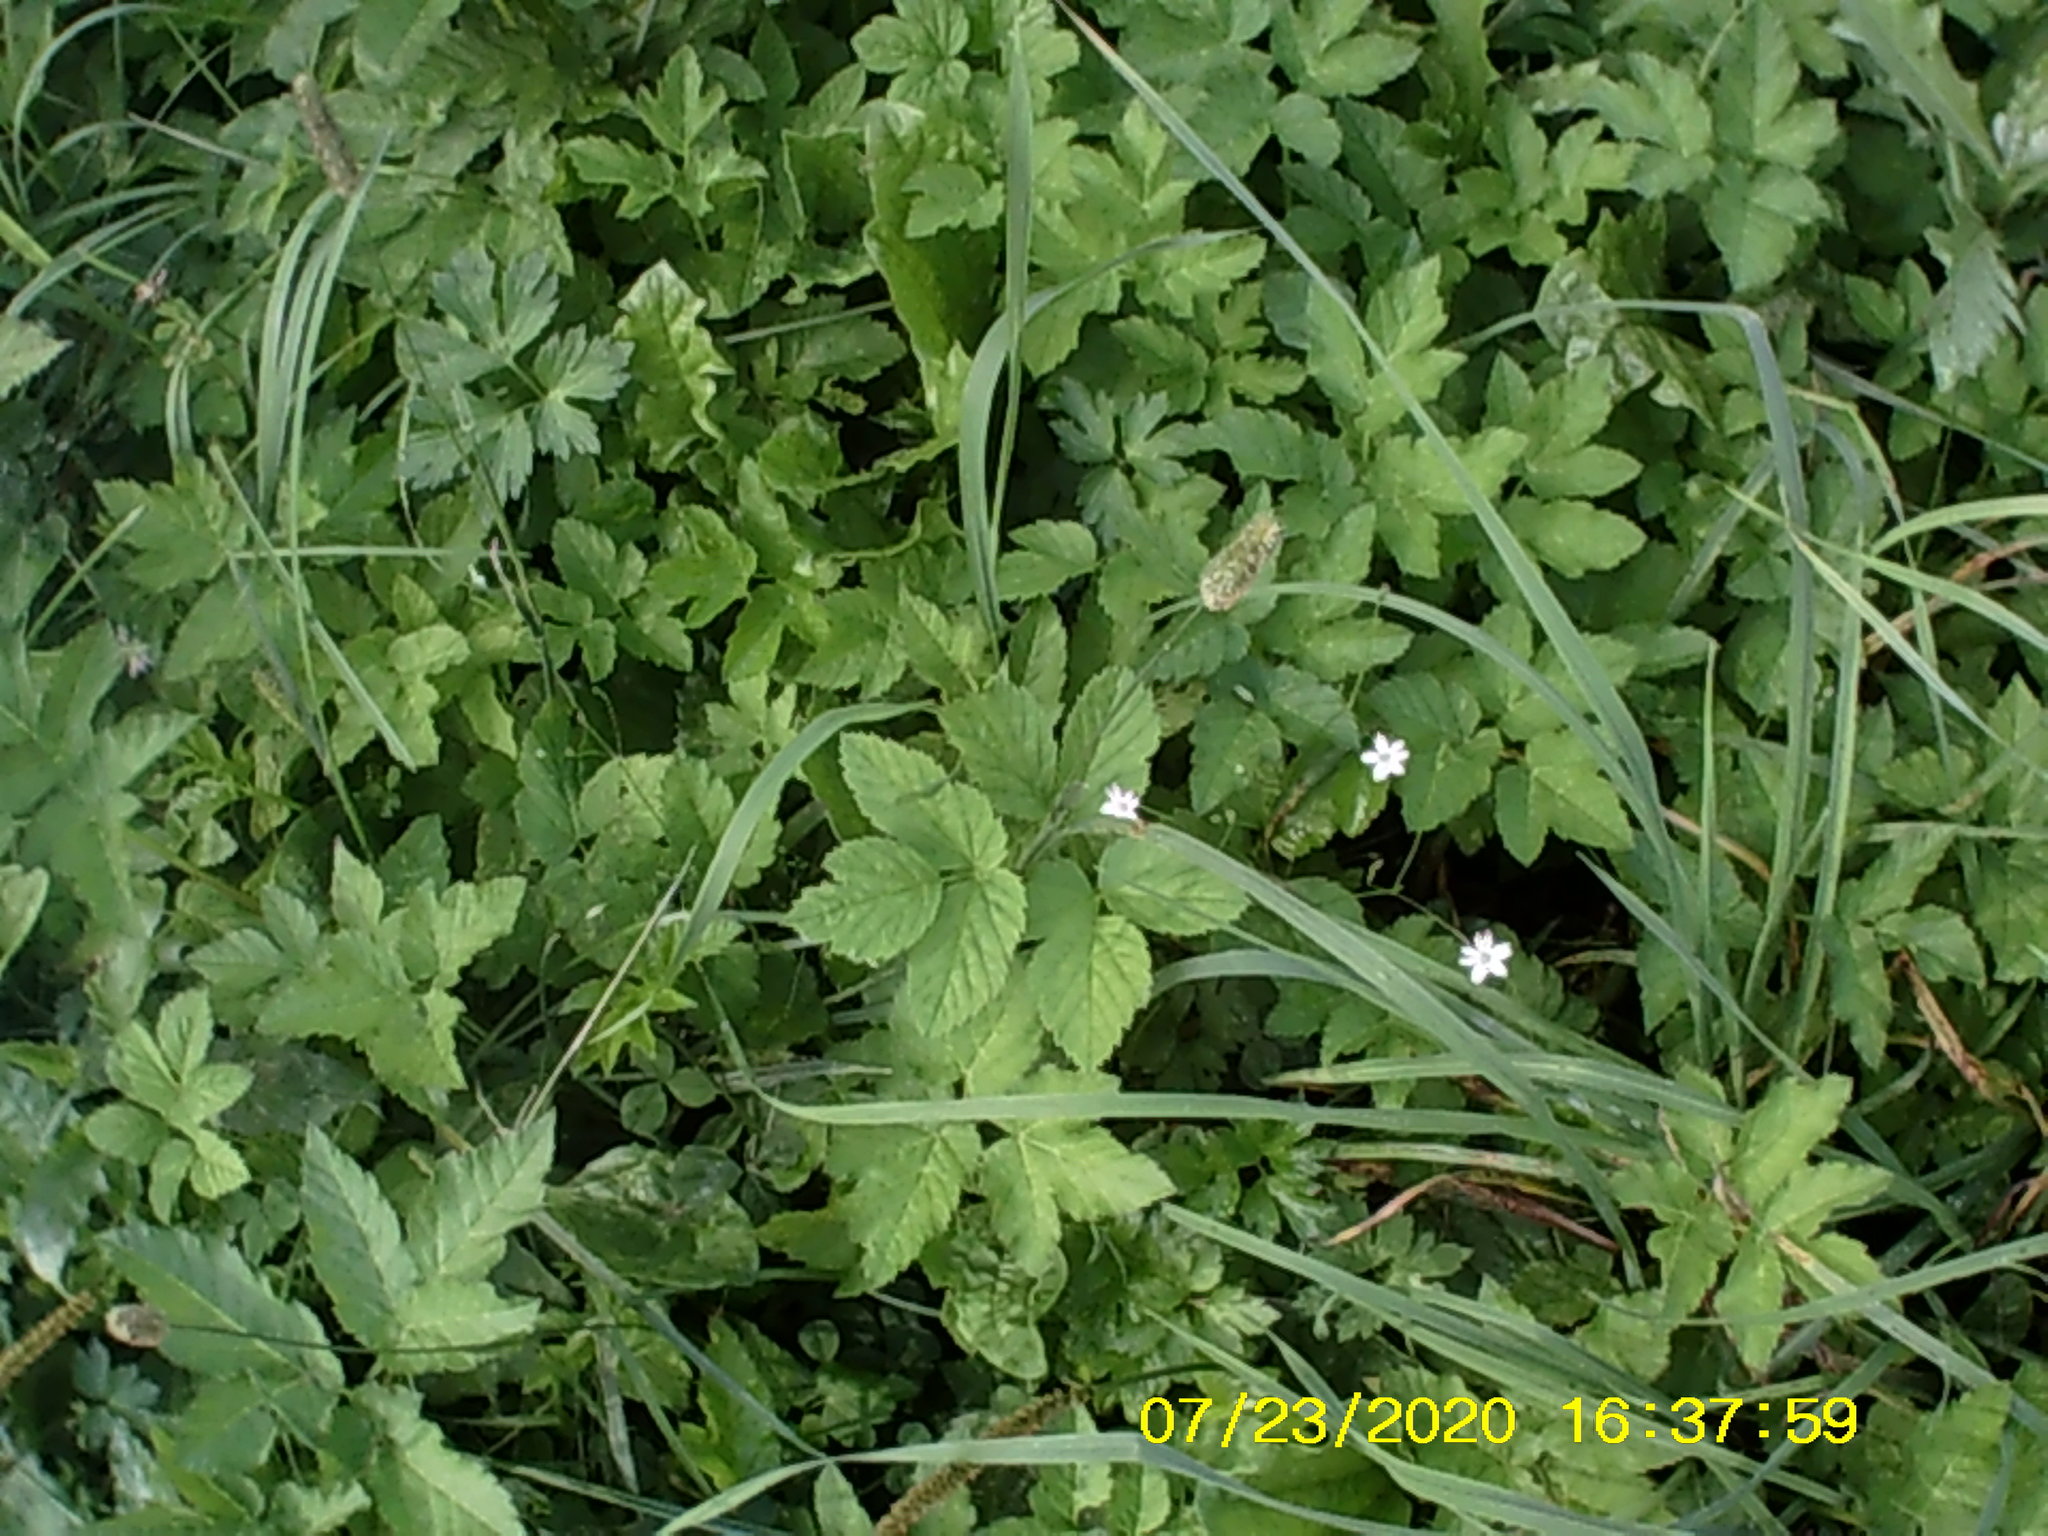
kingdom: Plantae
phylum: Tracheophyta
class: Magnoliopsida
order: Apiales
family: Apiaceae
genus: Aegopodium
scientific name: Aegopodium podagraria
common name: Ground-elder
